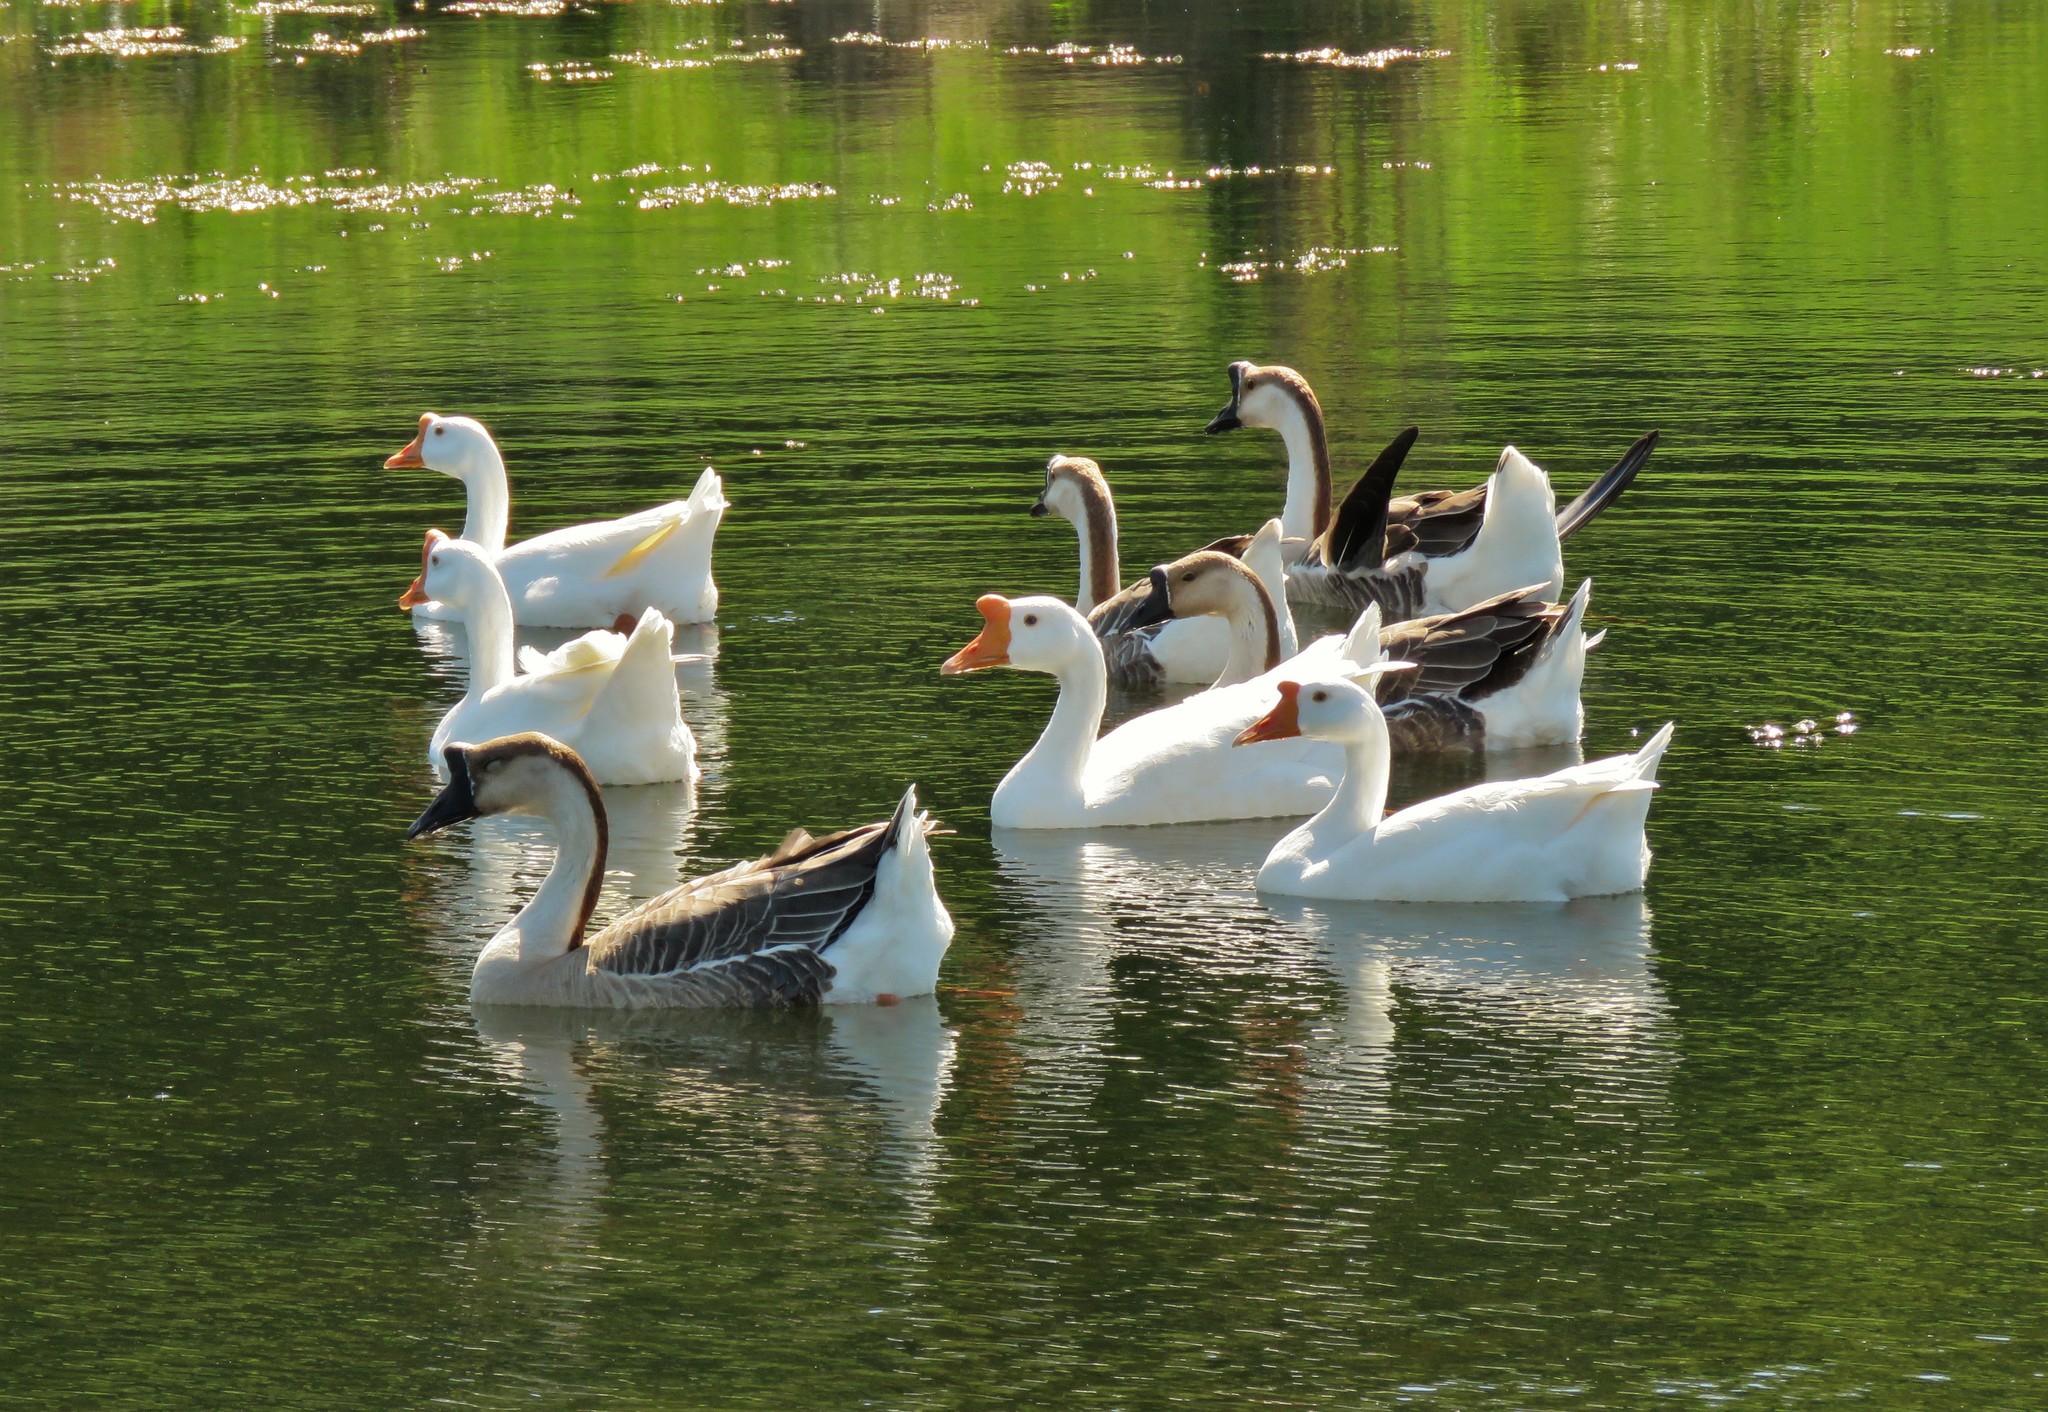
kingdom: Animalia
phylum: Chordata
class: Aves
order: Anseriformes
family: Anatidae
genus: Anser
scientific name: Anser cygnoides
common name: Swan goose
